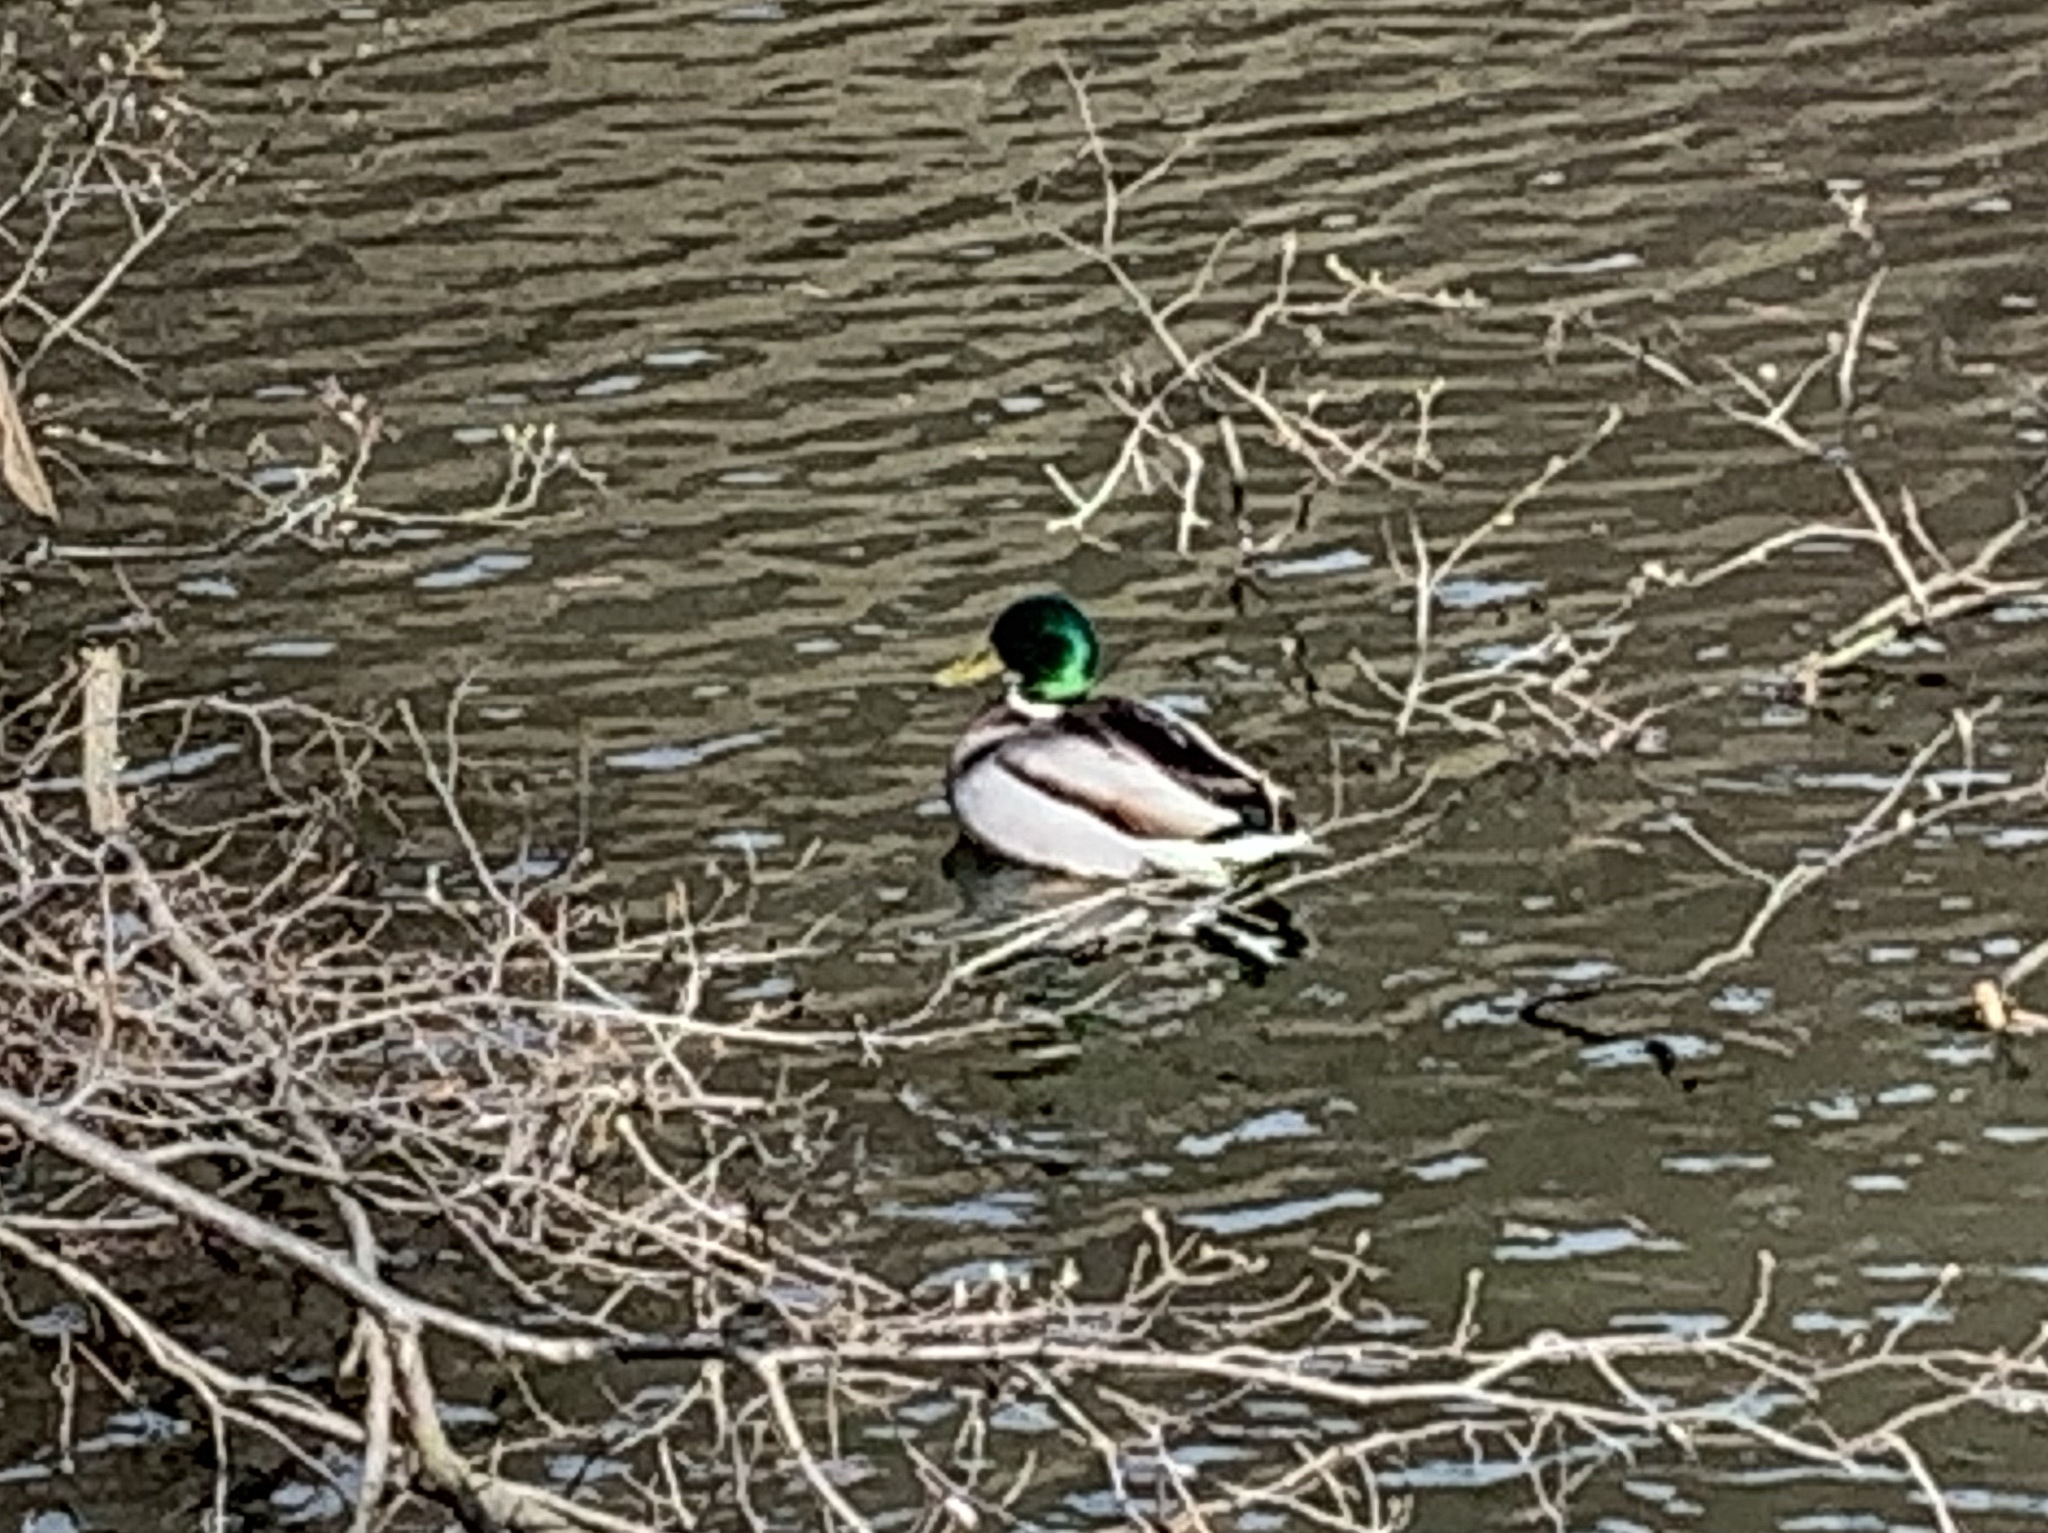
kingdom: Animalia
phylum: Chordata
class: Aves
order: Anseriformes
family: Anatidae
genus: Anas
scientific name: Anas platyrhynchos
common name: Mallard
